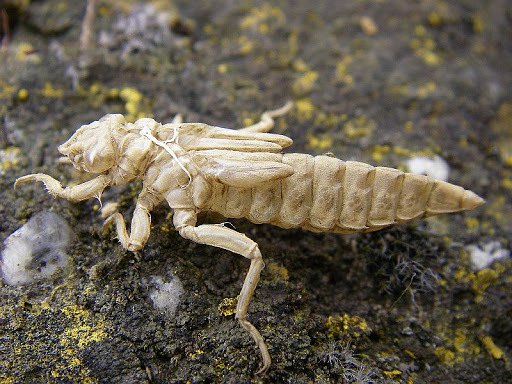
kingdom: Animalia
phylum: Arthropoda
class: Insecta
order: Odonata
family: Gomphidae
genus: Stylurus
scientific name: Stylurus flavipes
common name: River clubtail
